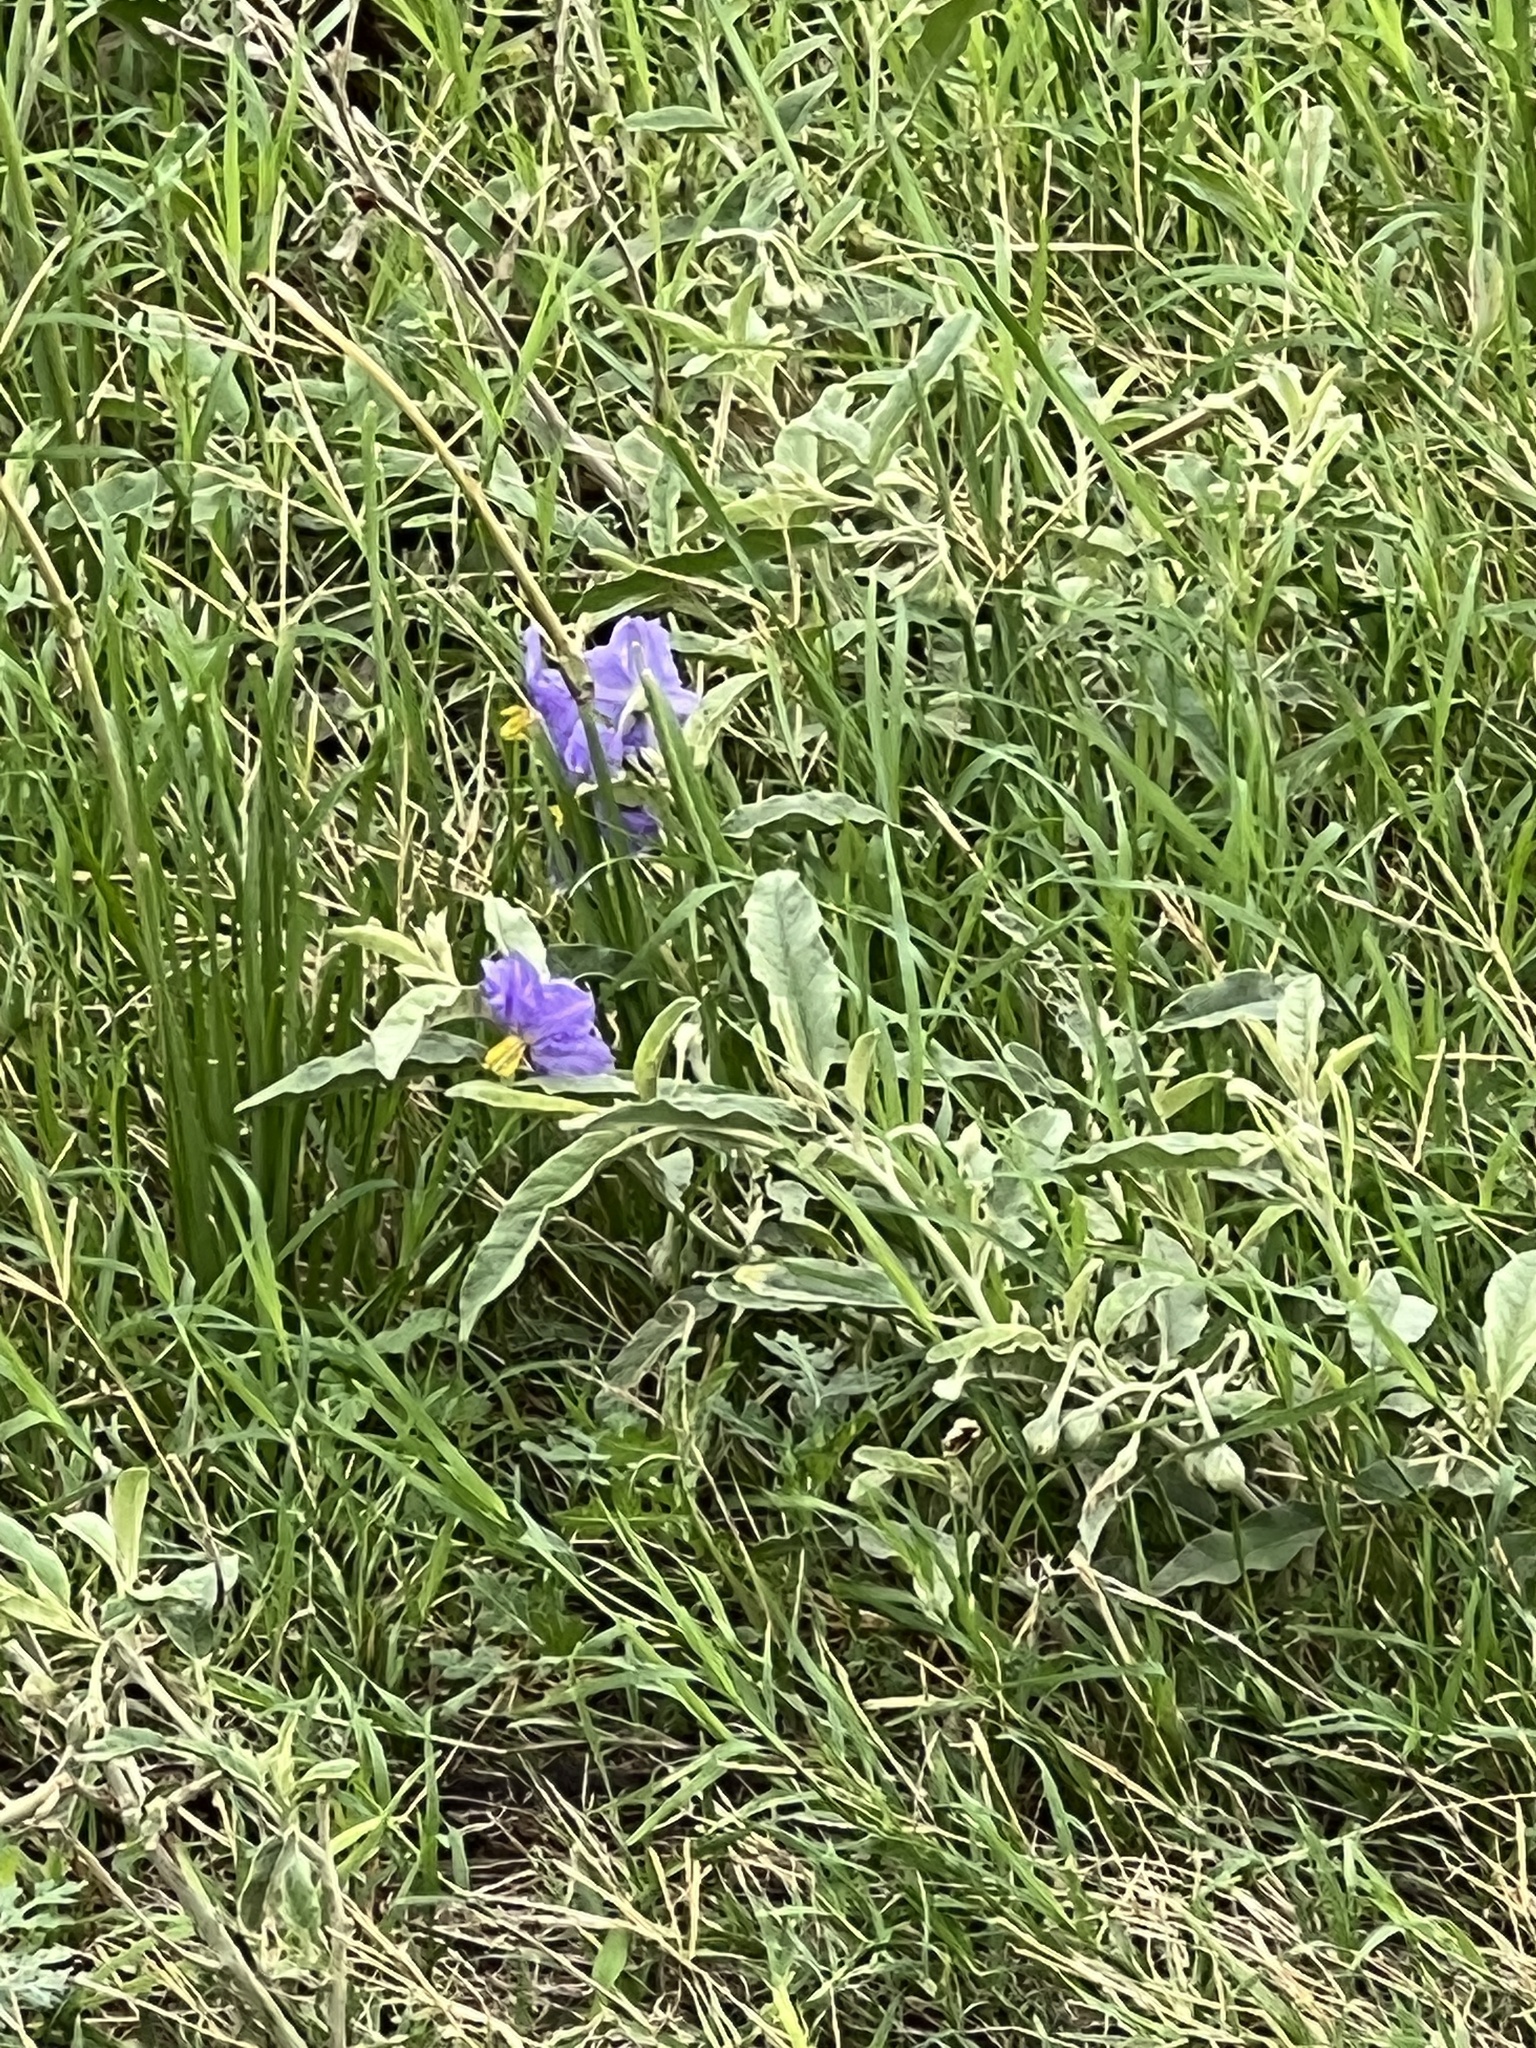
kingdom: Plantae
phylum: Tracheophyta
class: Magnoliopsida
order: Solanales
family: Solanaceae
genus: Solanum
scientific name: Solanum elaeagnifolium
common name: Silverleaf nightshade
